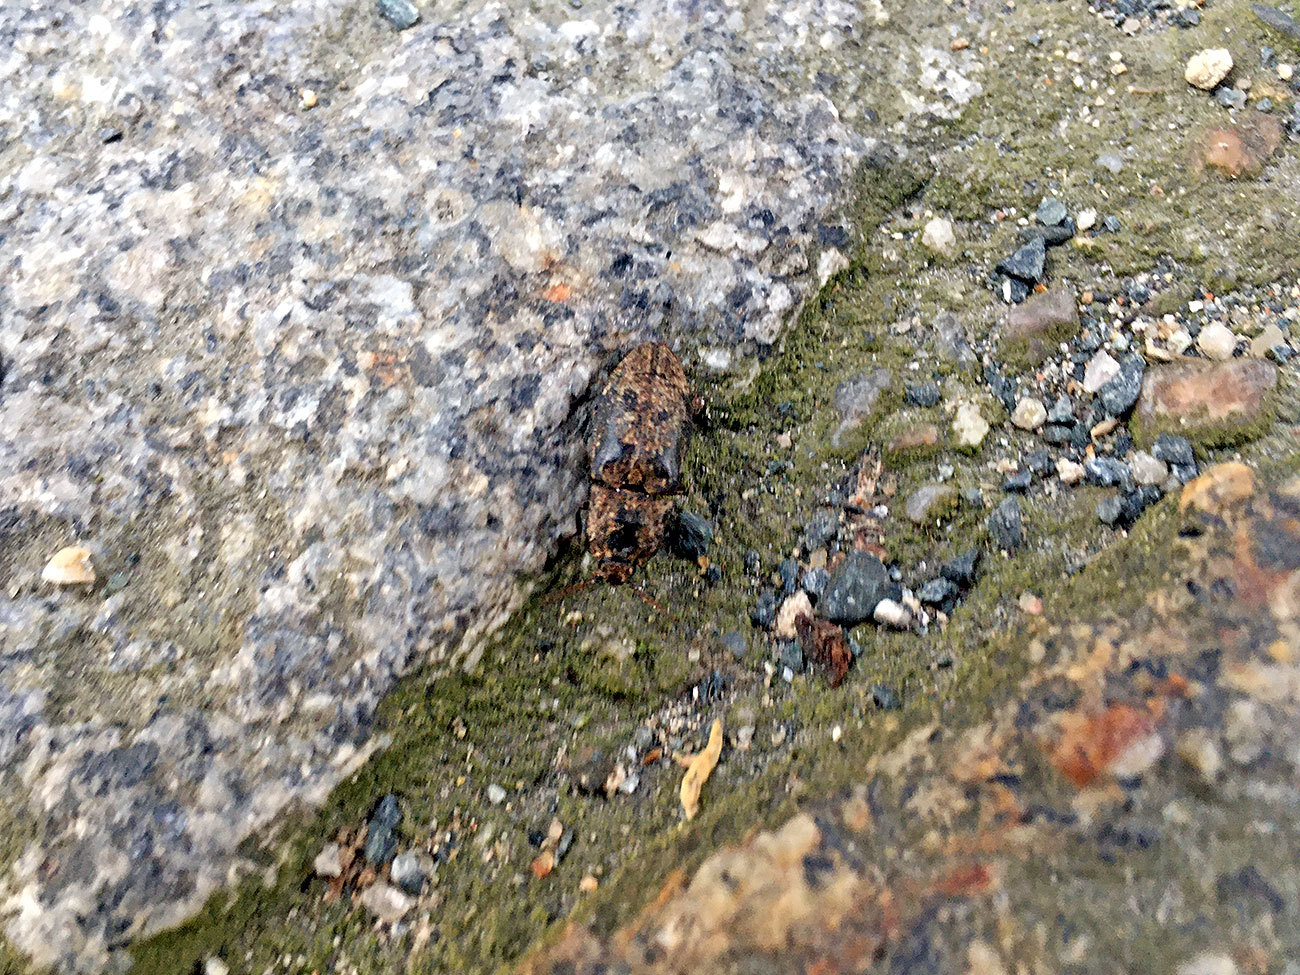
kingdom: Animalia
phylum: Arthropoda
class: Insecta
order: Coleoptera
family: Elateridae
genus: Agrypnus
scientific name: Agrypnus murinus
